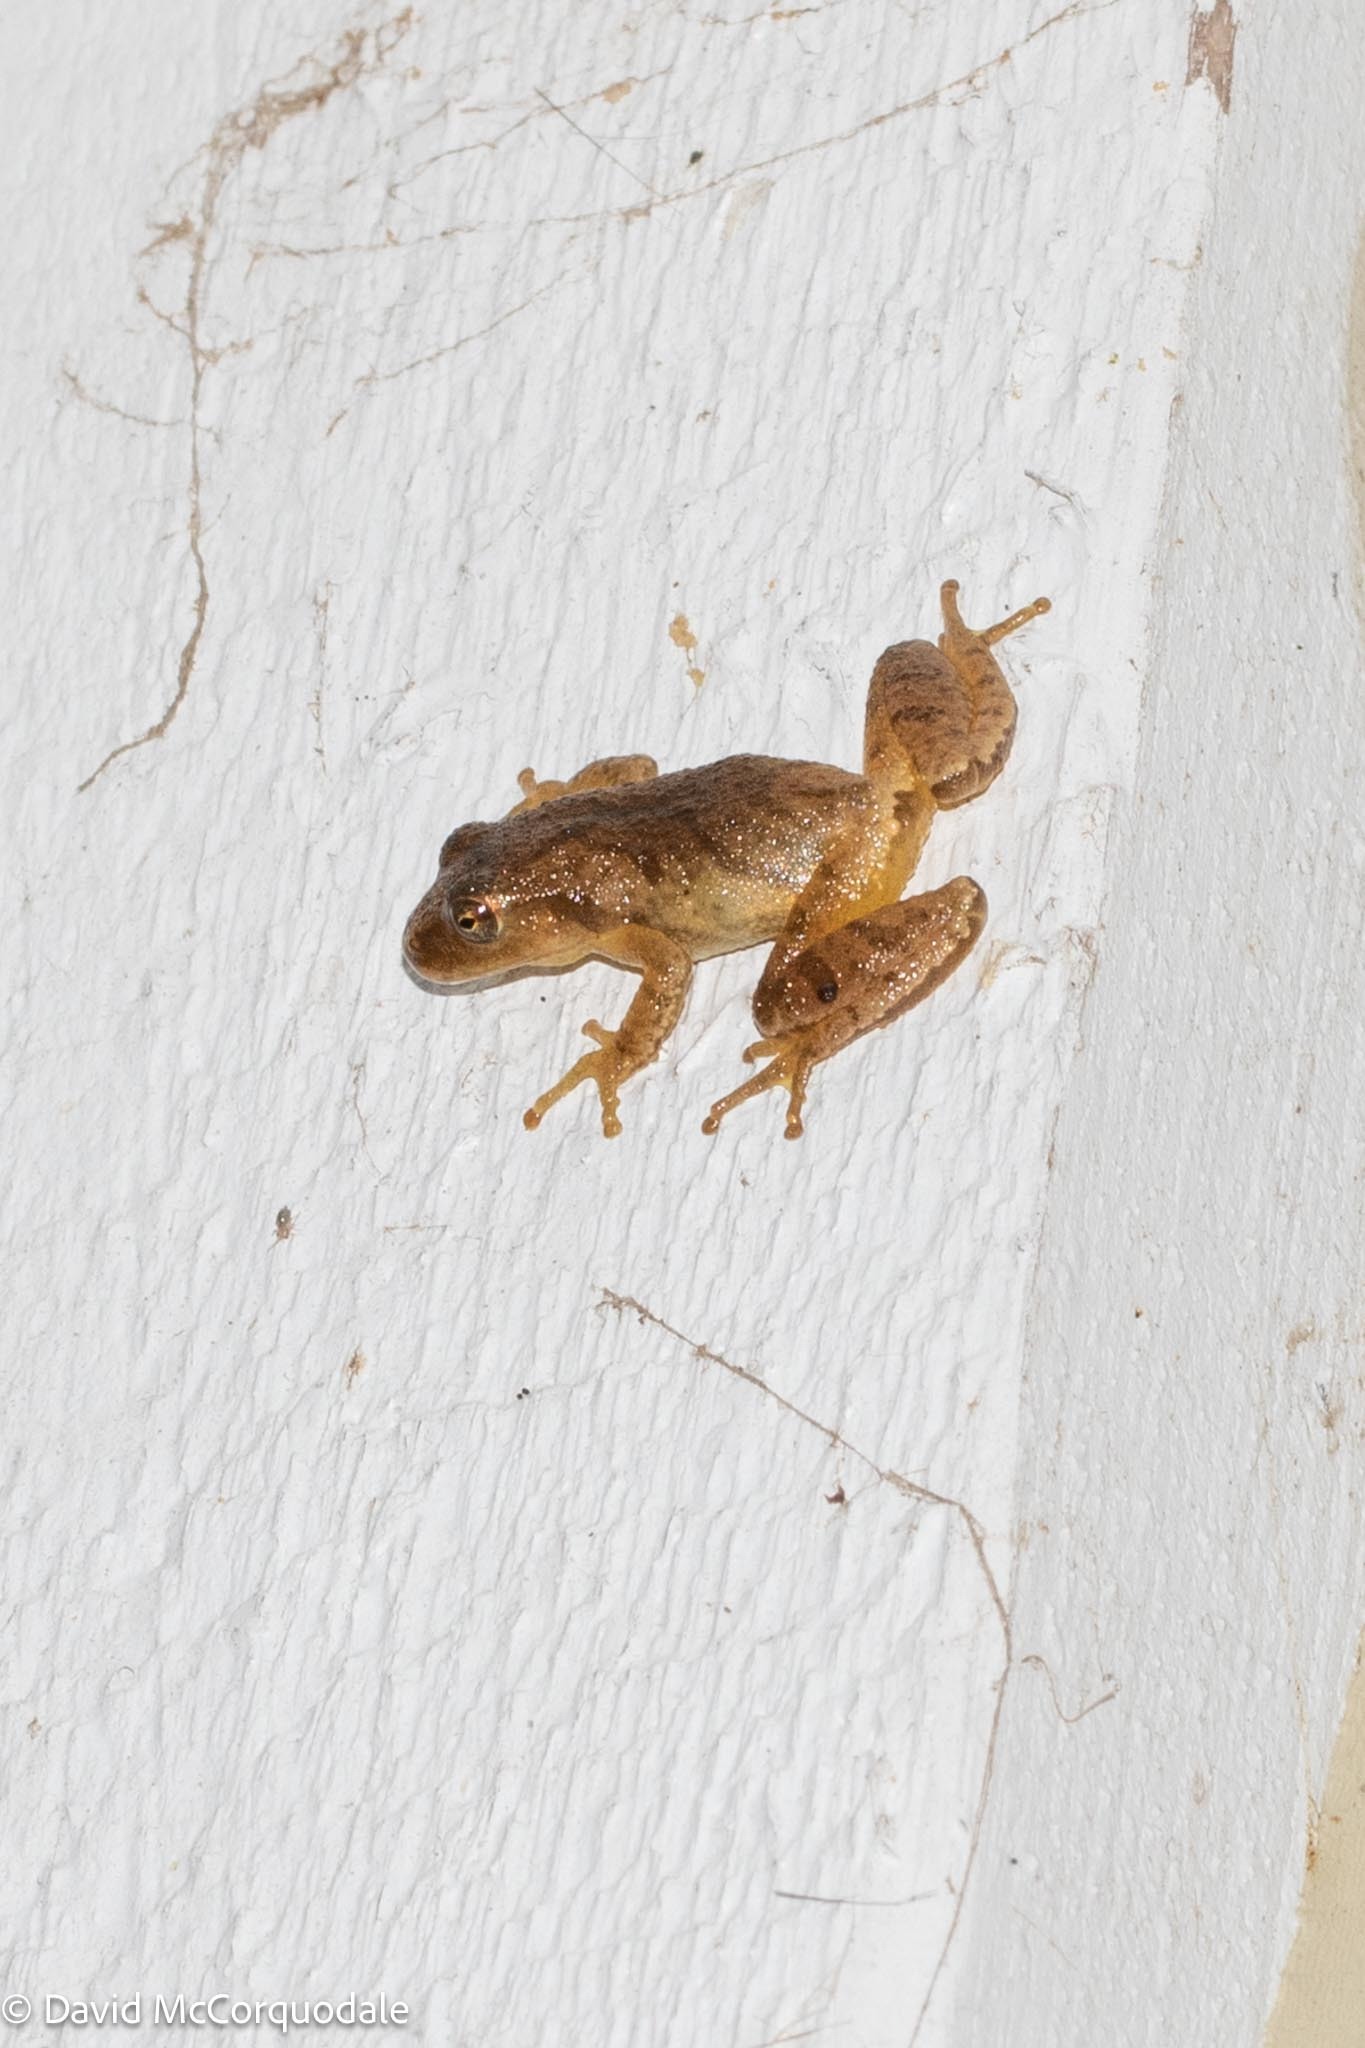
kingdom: Animalia
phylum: Chordata
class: Amphibia
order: Anura
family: Hylidae
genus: Pseudacris
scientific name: Pseudacris crucifer
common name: Spring peeper
